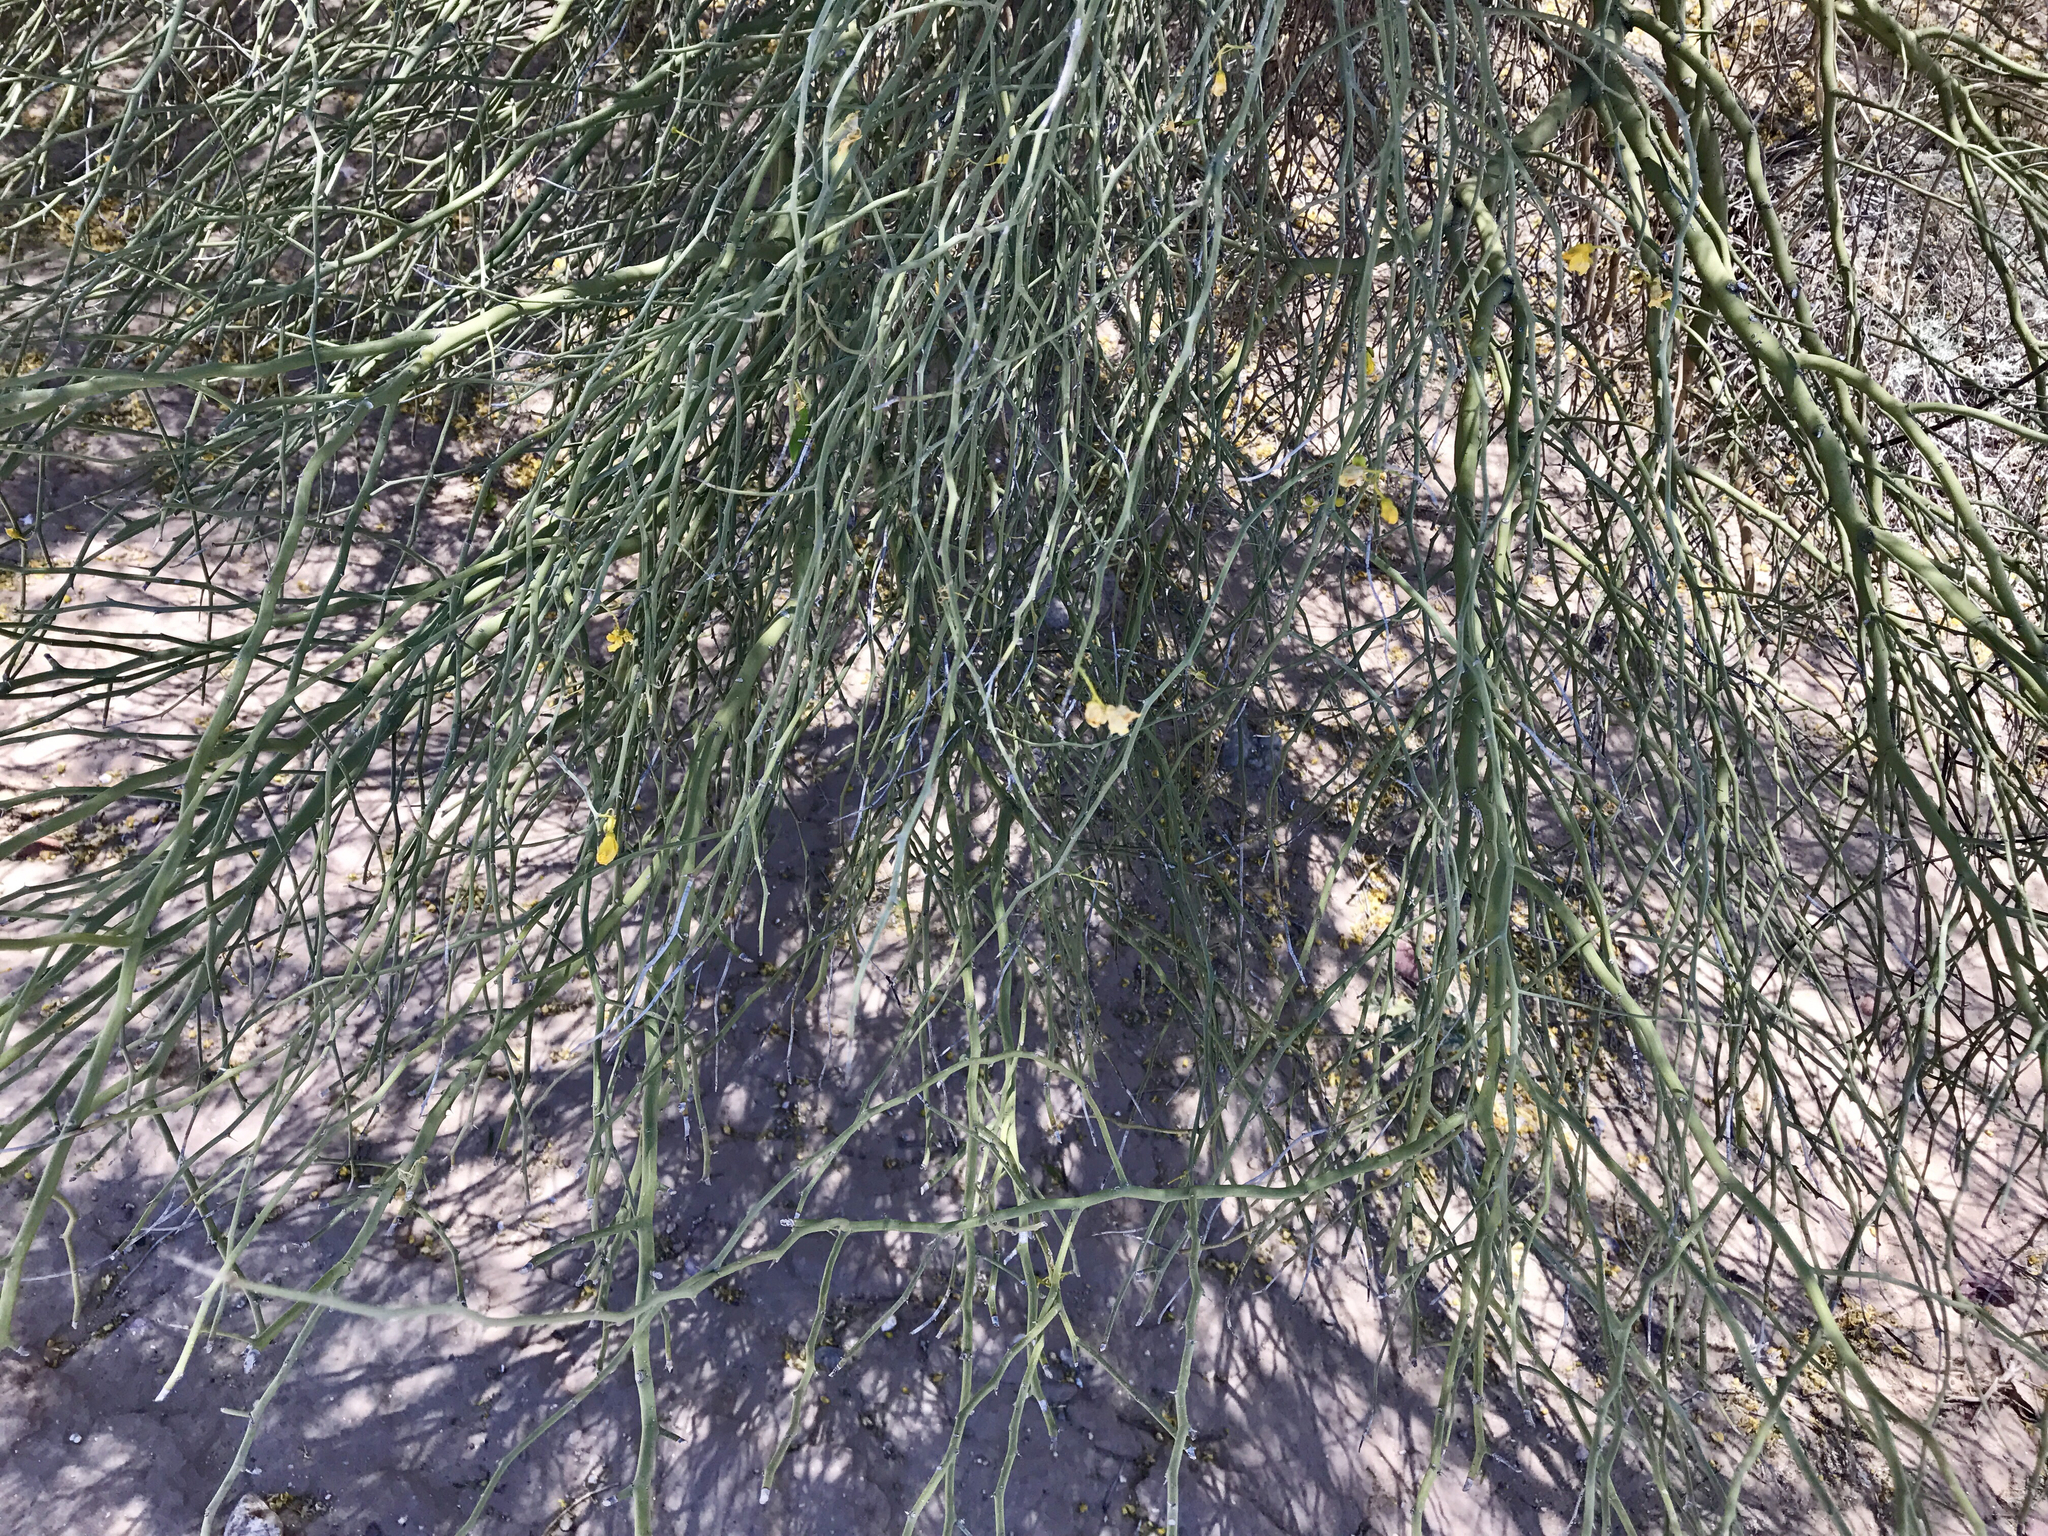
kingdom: Plantae
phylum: Tracheophyta
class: Magnoliopsida
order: Fabales
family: Fabaceae
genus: Parkinsonia
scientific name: Parkinsonia florida
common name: Blue paloverde
